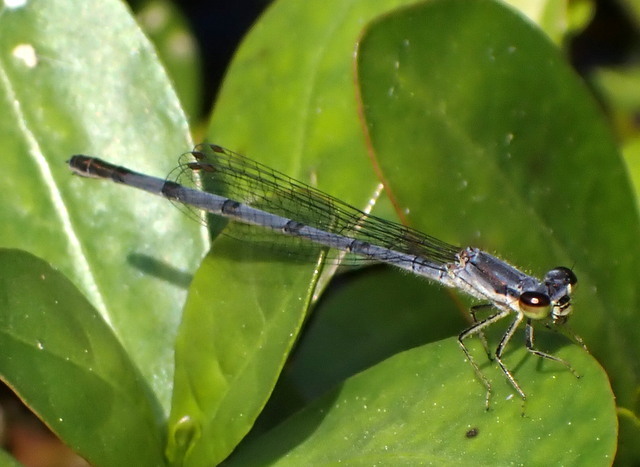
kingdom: Animalia
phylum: Arthropoda
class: Insecta
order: Odonata
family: Coenagrionidae
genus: Ischnura
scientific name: Ischnura posita
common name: Fragile forktail
